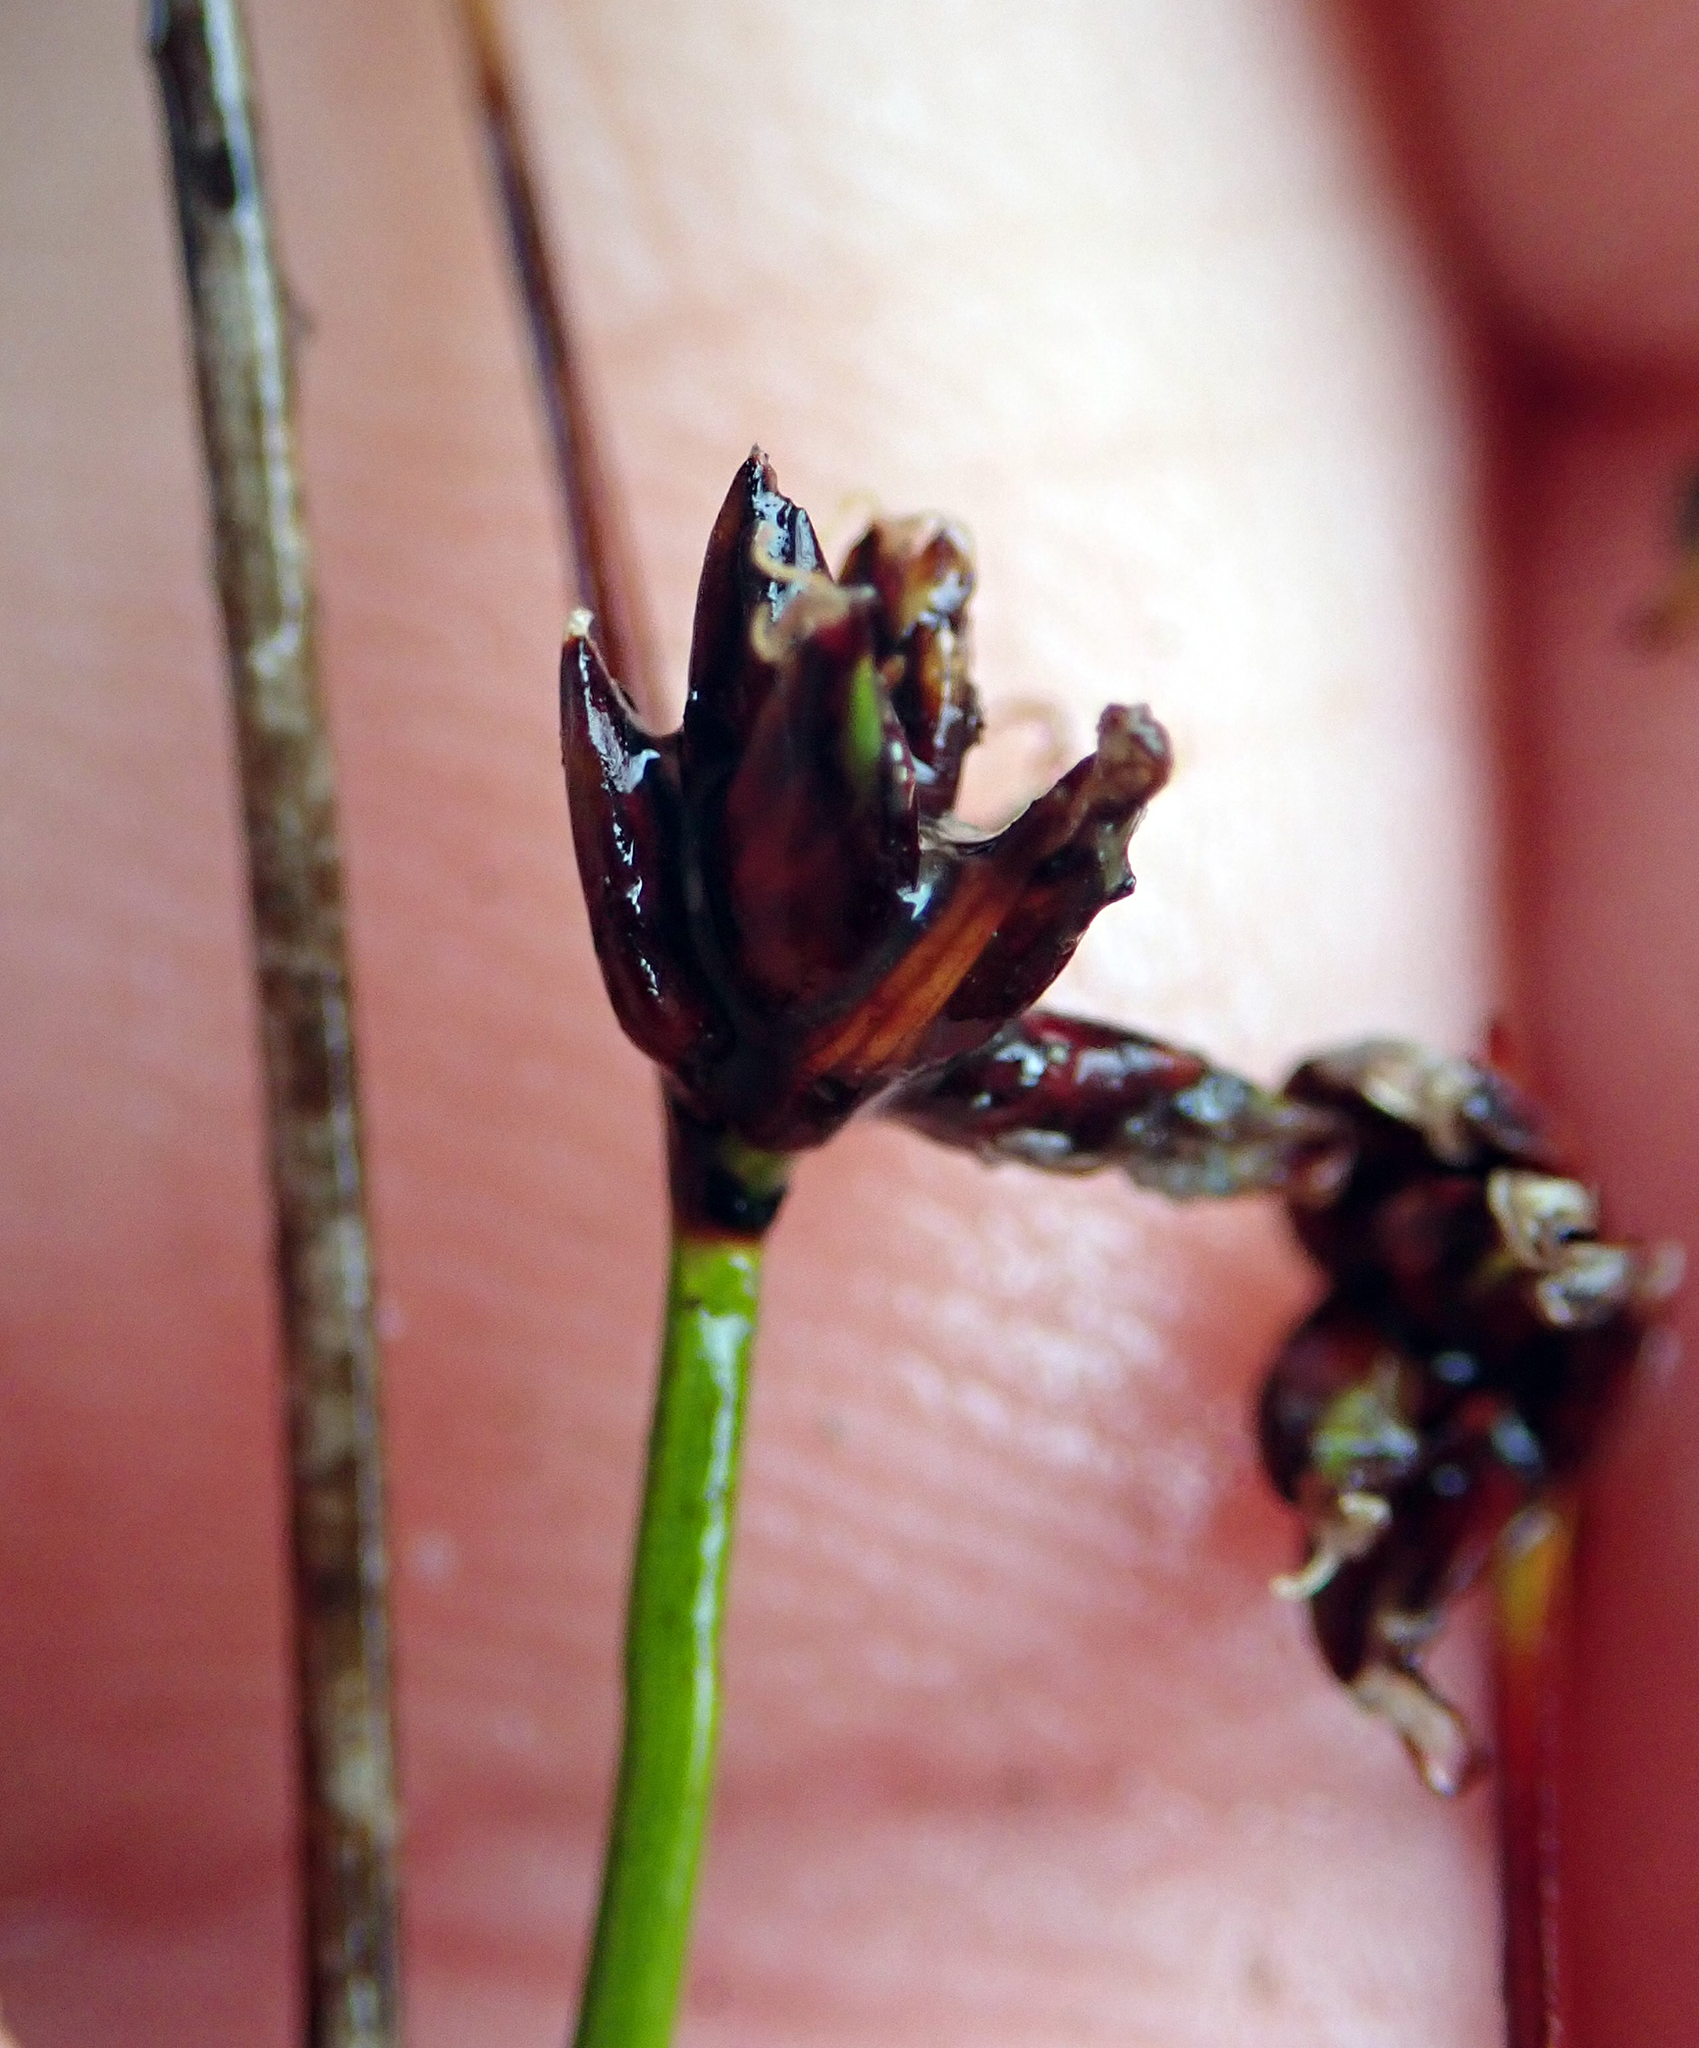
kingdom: Plantae
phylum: Tracheophyta
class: Liliopsida
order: Poales
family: Cyperaceae
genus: Schoenus
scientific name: Schoenus nitens
